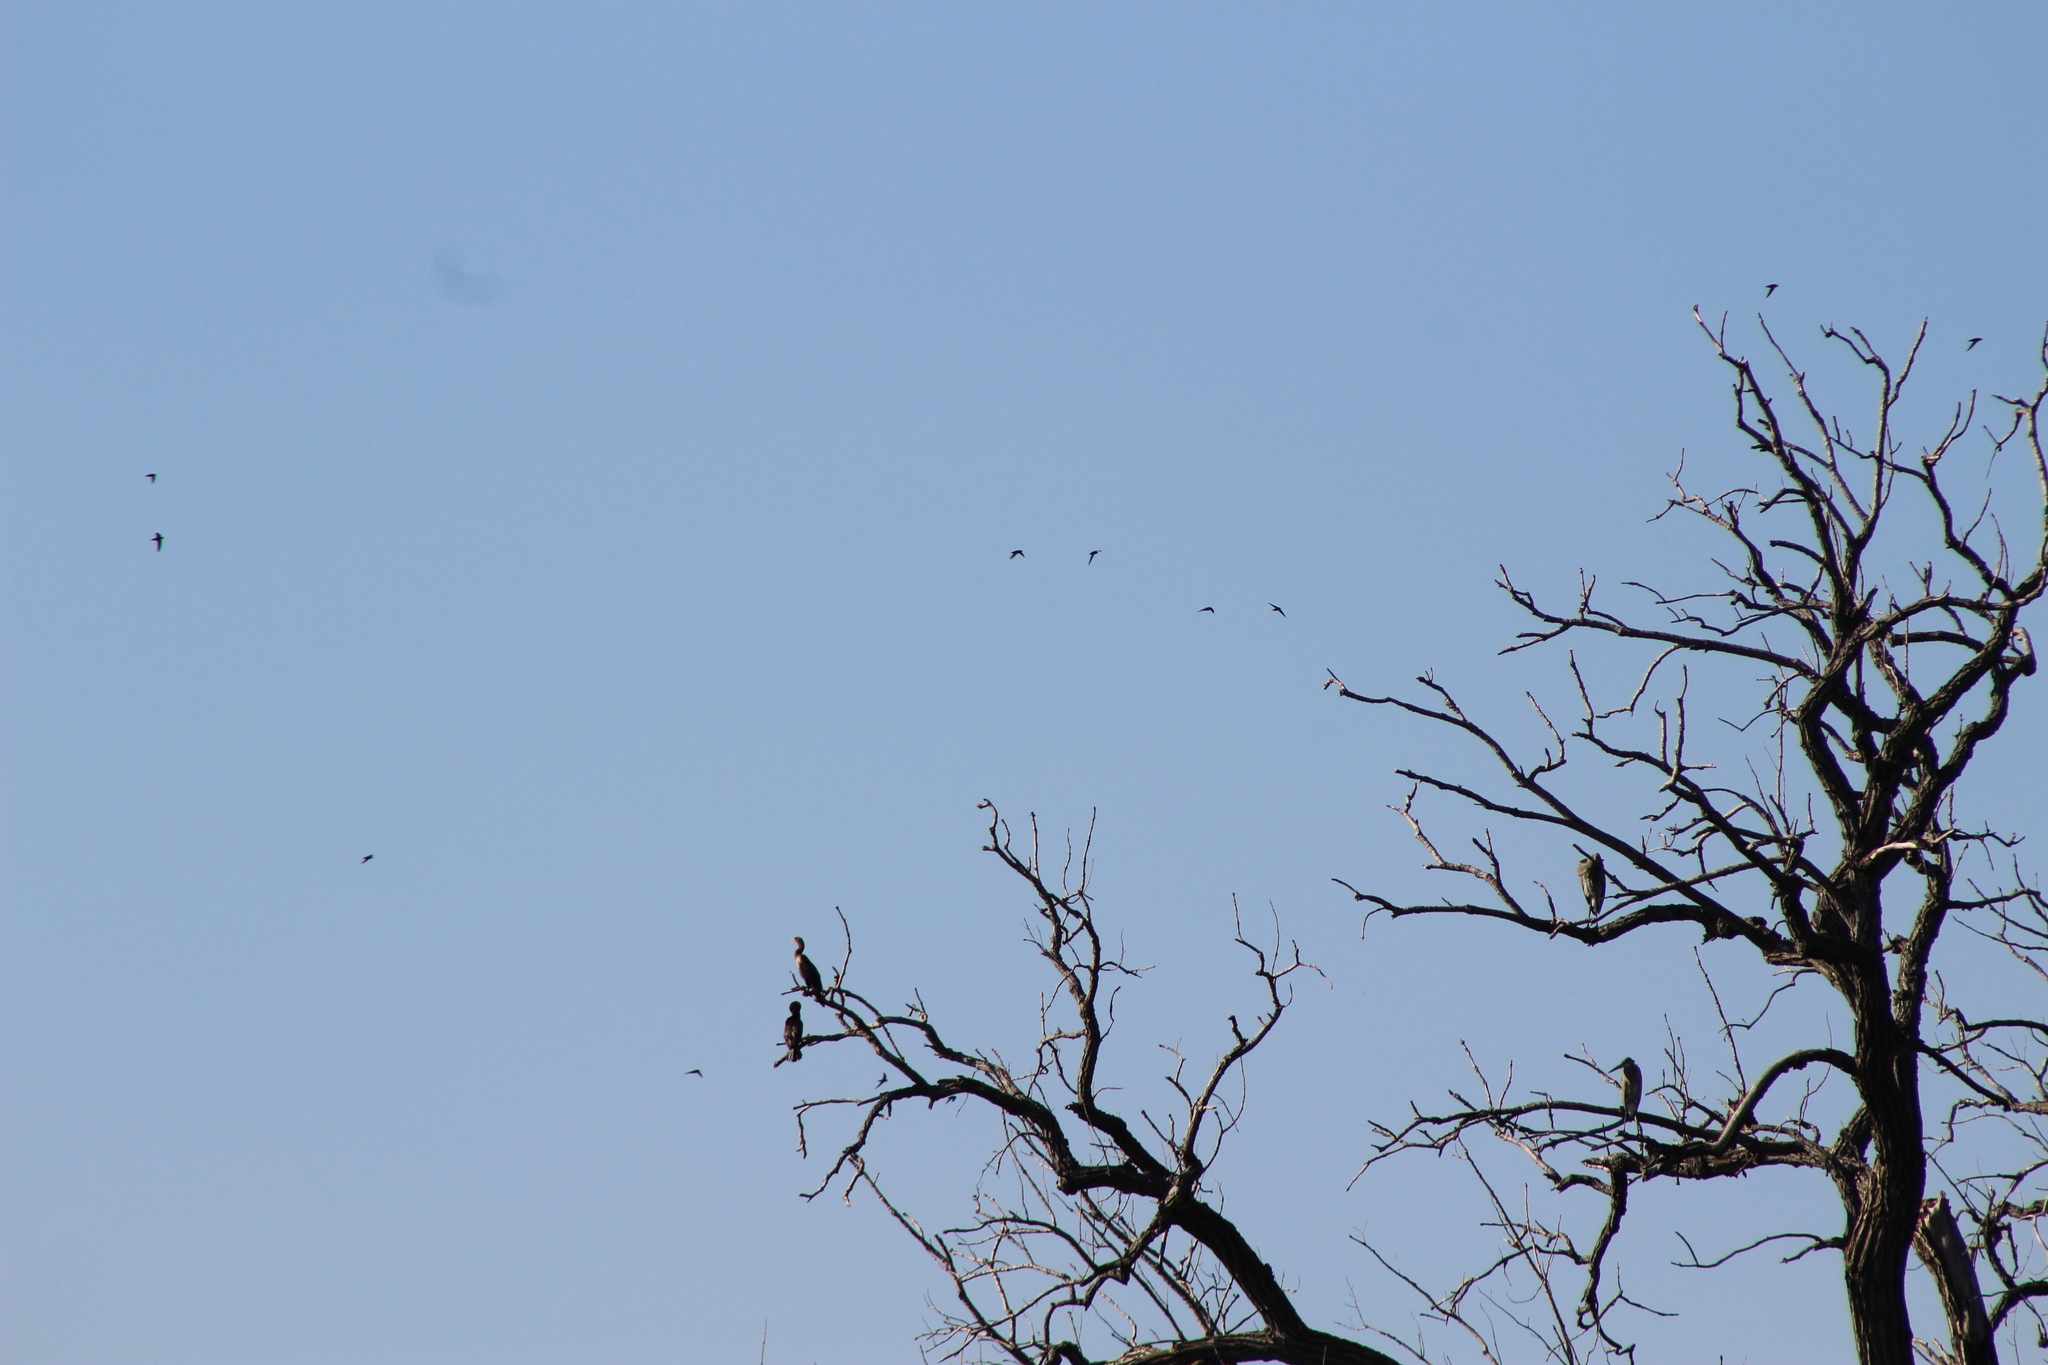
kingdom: Animalia
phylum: Chordata
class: Aves
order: Apodiformes
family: Apodidae
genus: Chaetura
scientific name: Chaetura pelagica
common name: Chimney swift
